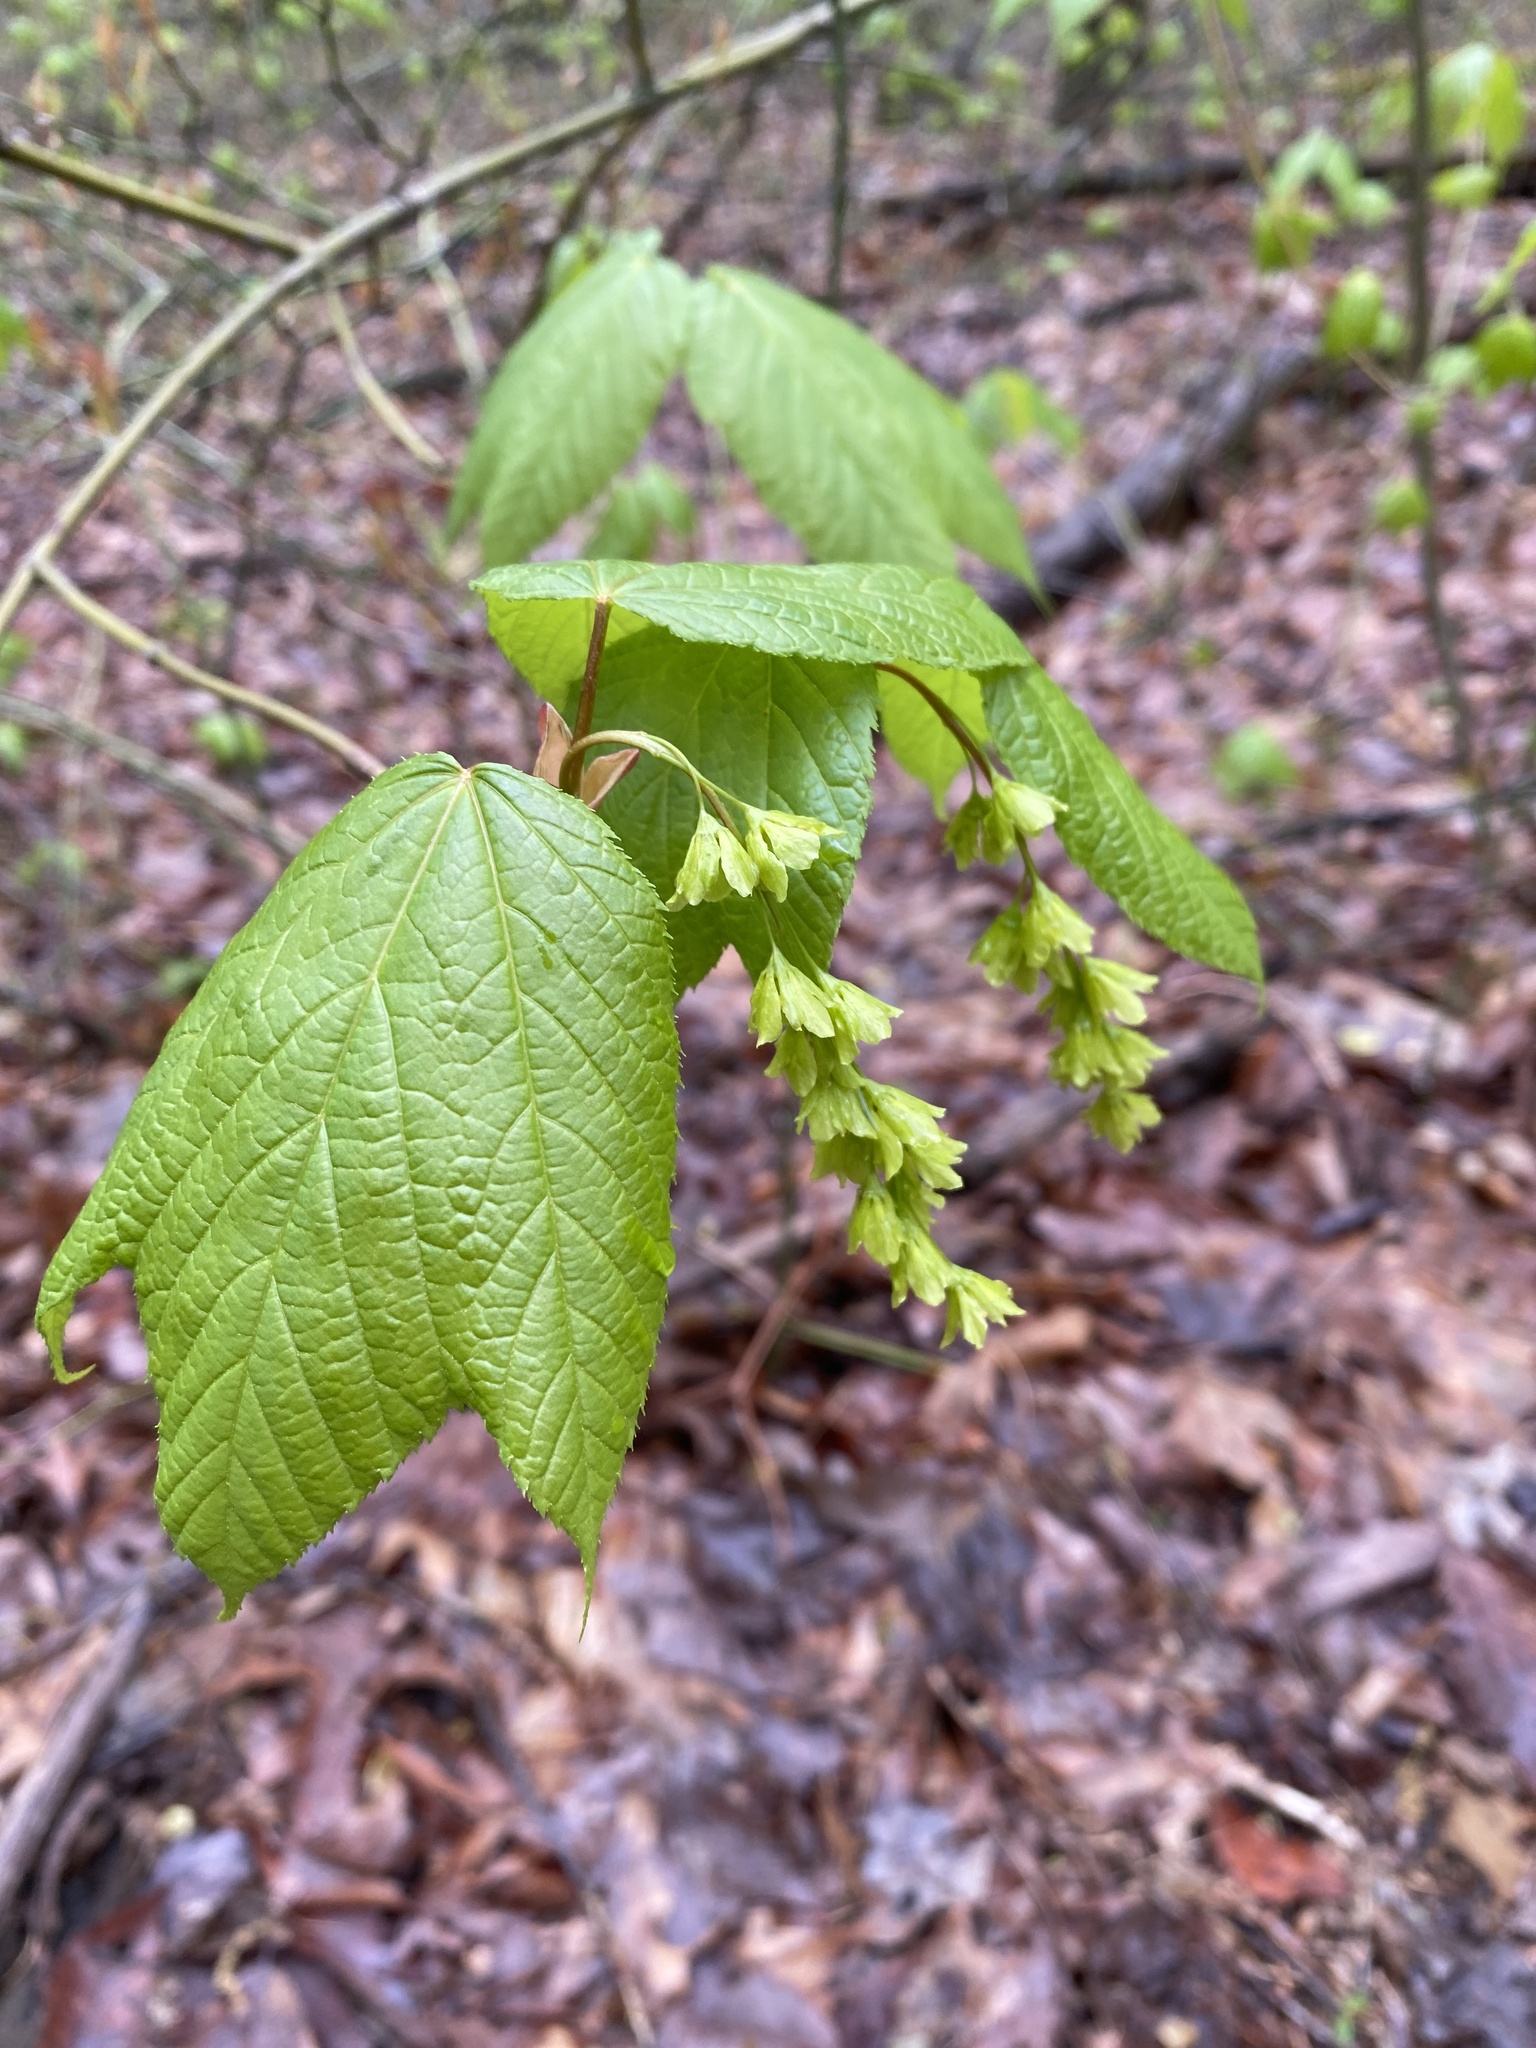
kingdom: Plantae
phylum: Tracheophyta
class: Magnoliopsida
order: Sapindales
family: Sapindaceae
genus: Acer
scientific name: Acer pensylvanicum
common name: Moosewood
